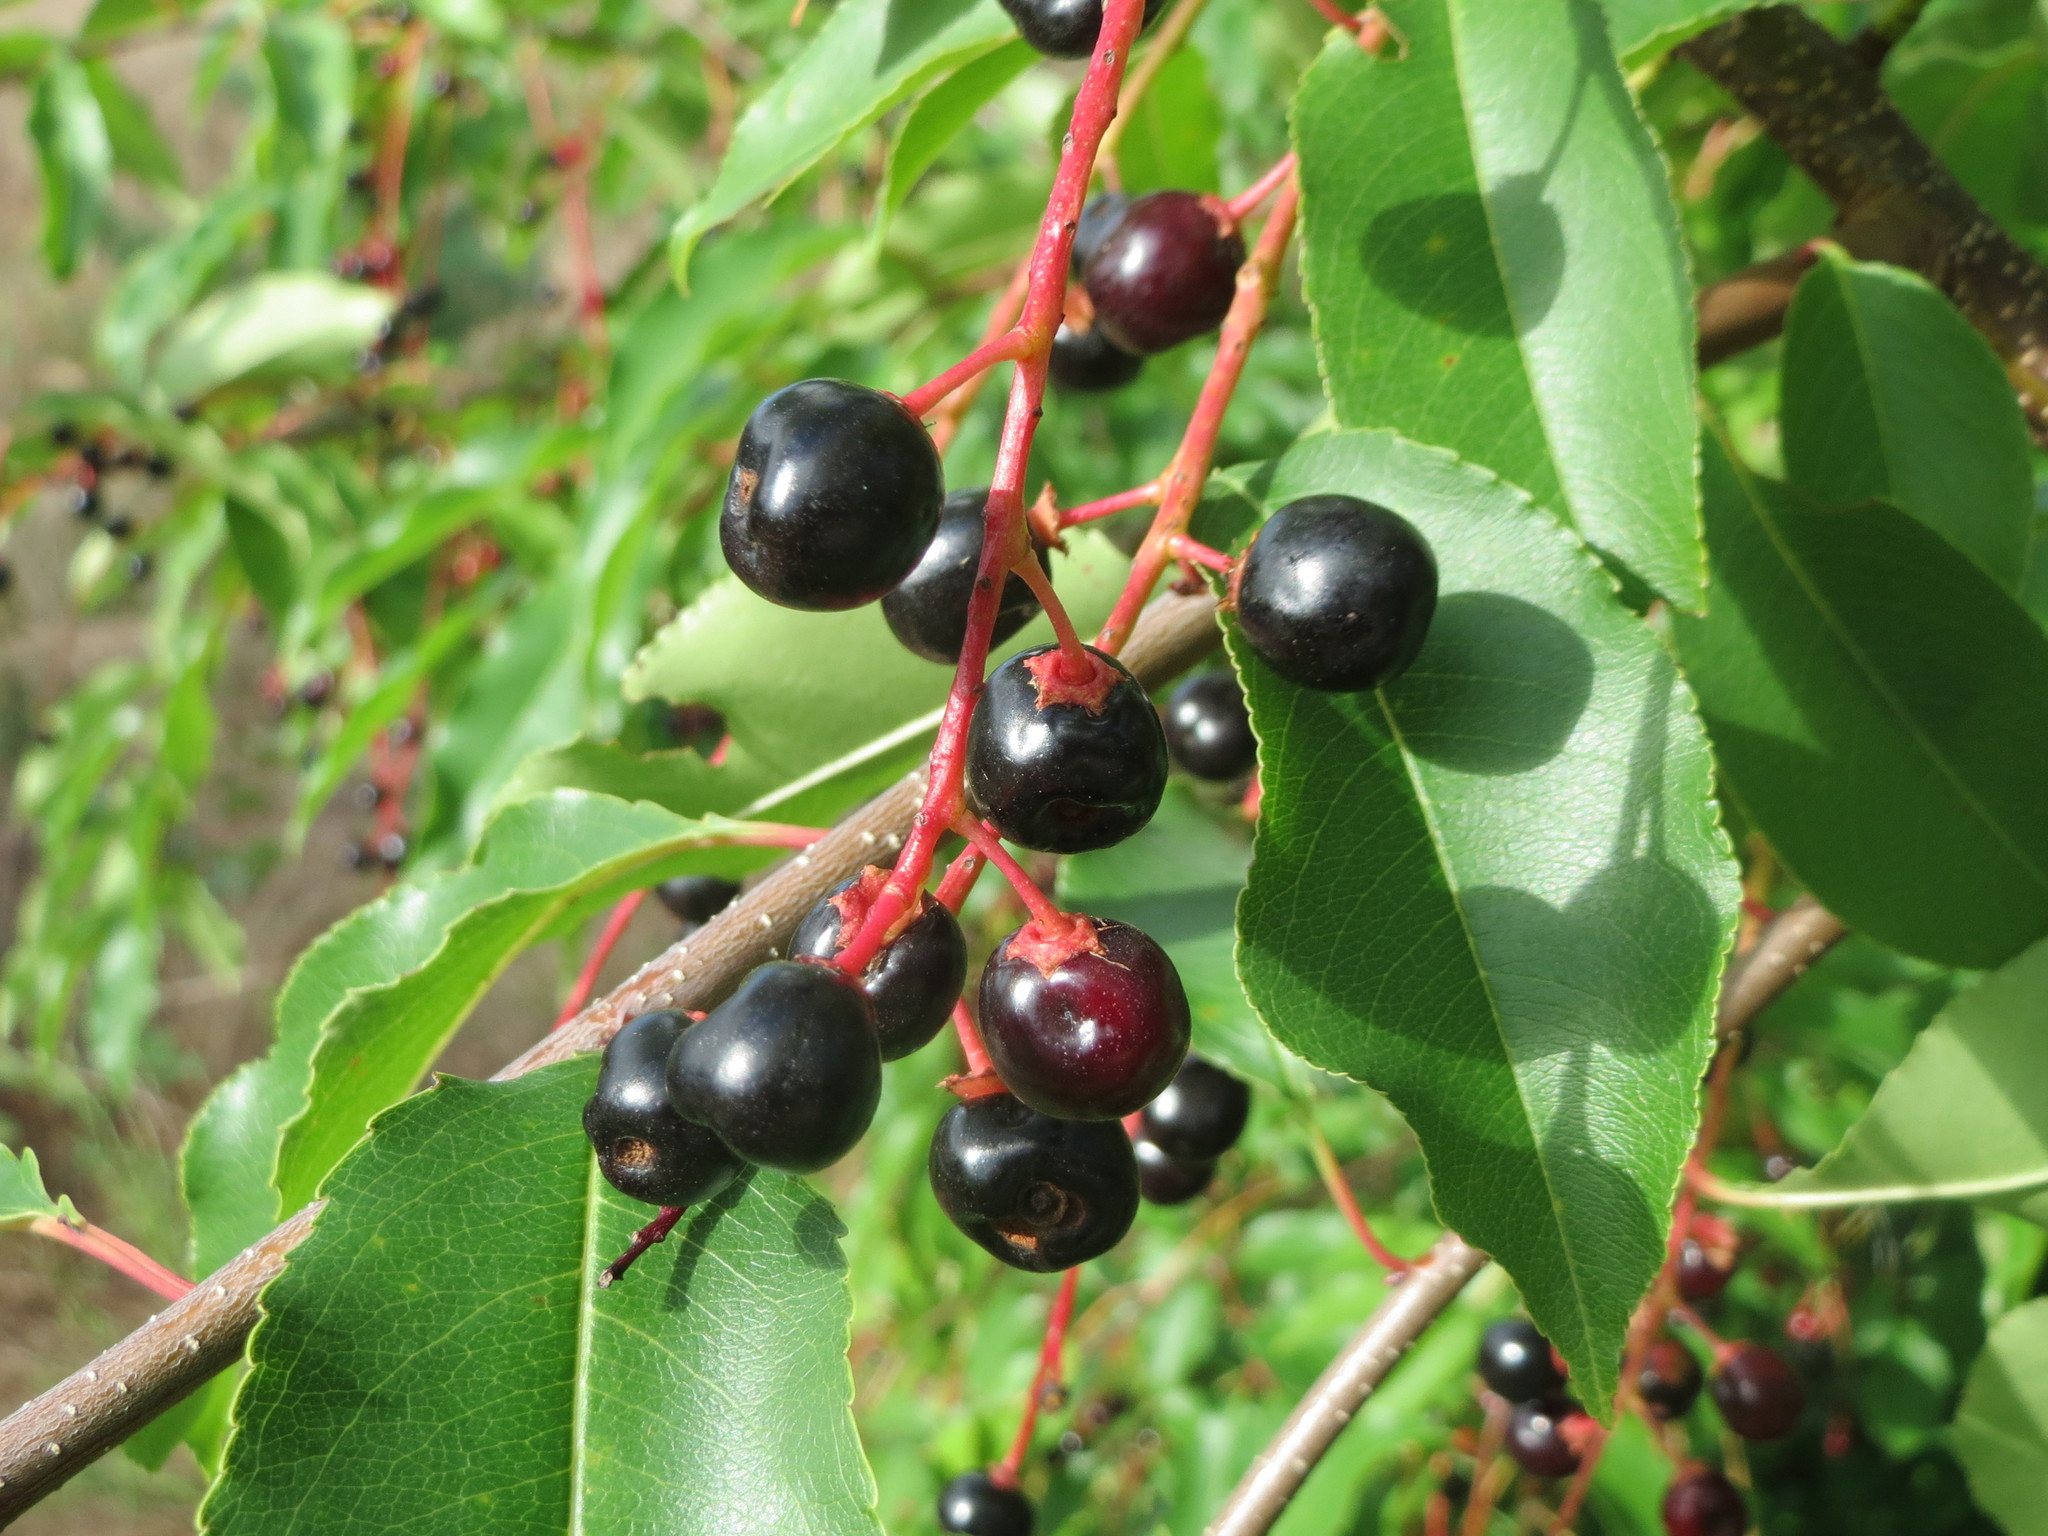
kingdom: Plantae
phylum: Tracheophyta
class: Magnoliopsida
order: Rosales
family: Rosaceae
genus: Prunus
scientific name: Prunus serotina
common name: Black cherry
